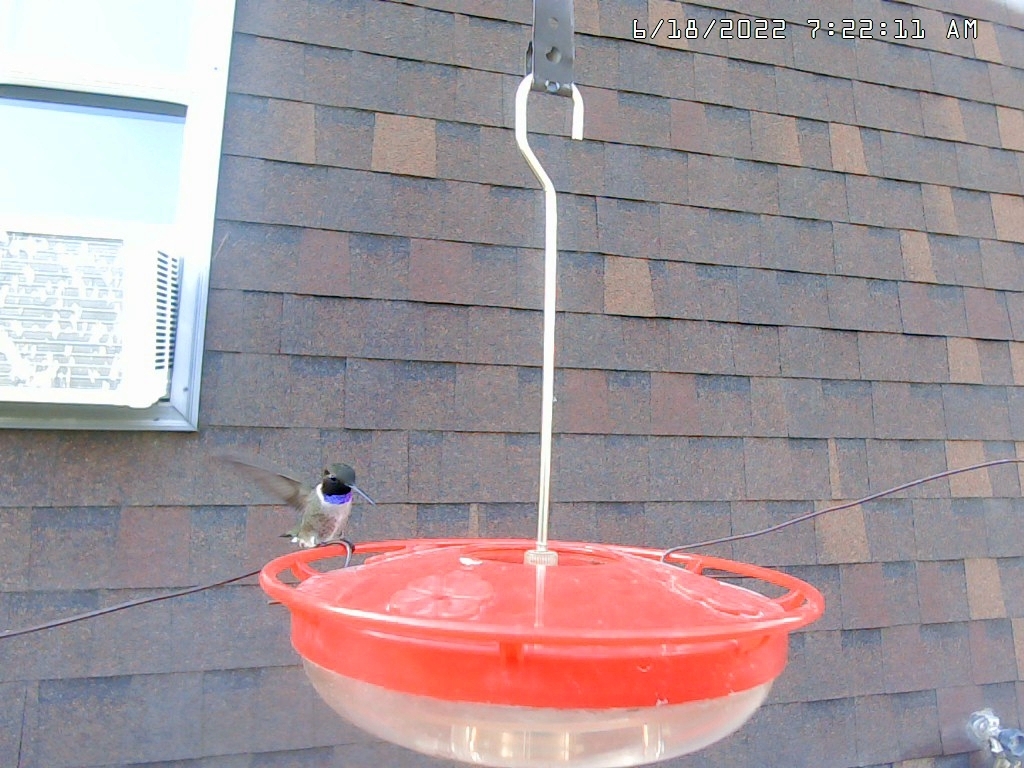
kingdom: Animalia
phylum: Chordata
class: Aves
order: Apodiformes
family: Trochilidae
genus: Archilochus
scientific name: Archilochus alexandri
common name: Black-chinned hummingbird
